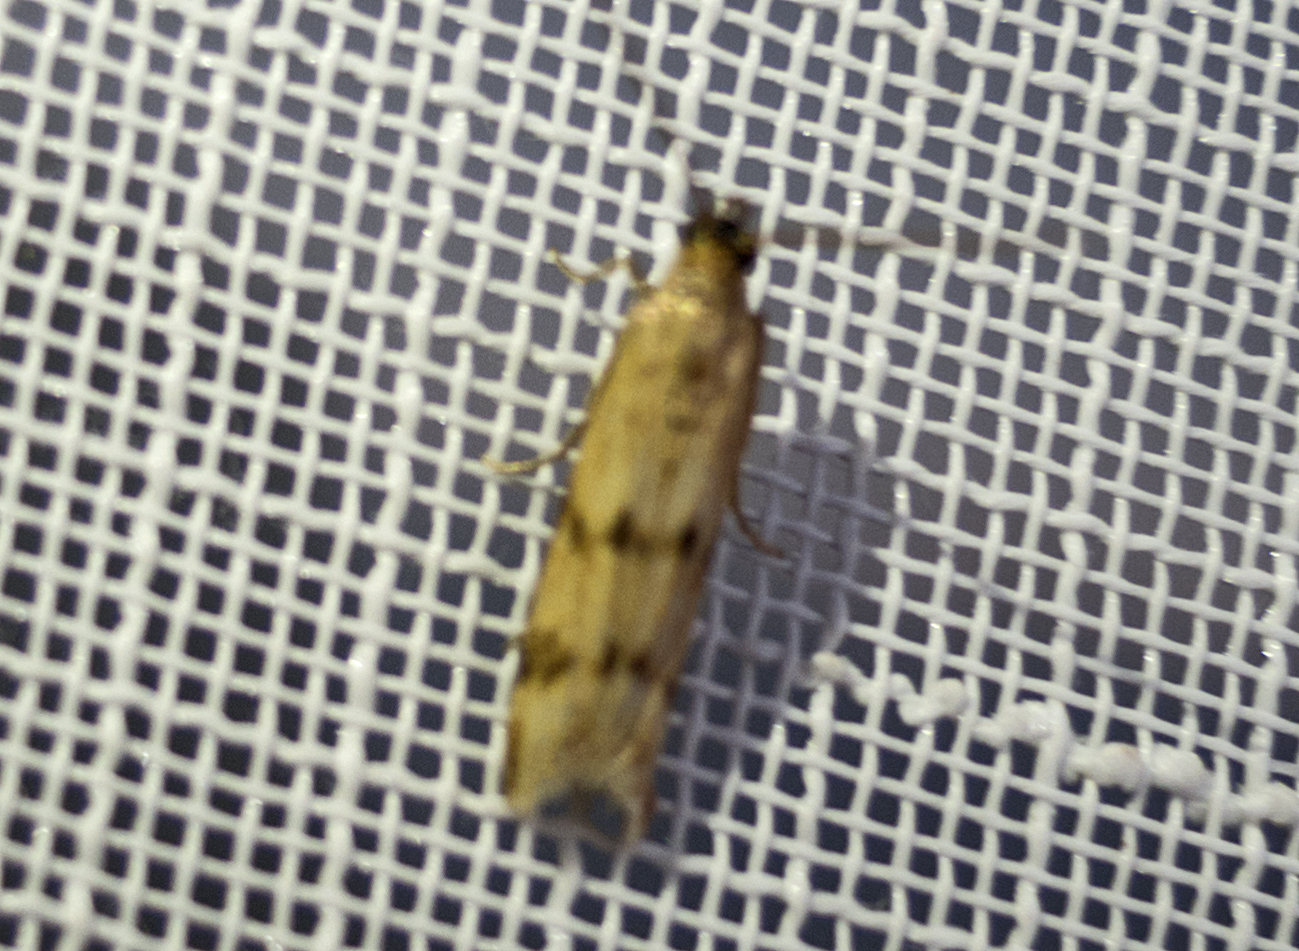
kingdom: Animalia
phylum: Arthropoda
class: Insecta
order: Lepidoptera
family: Pyralidae
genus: Homoeosoma
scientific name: Homoeosoma sinuella
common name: Twin-barred knot-horn
